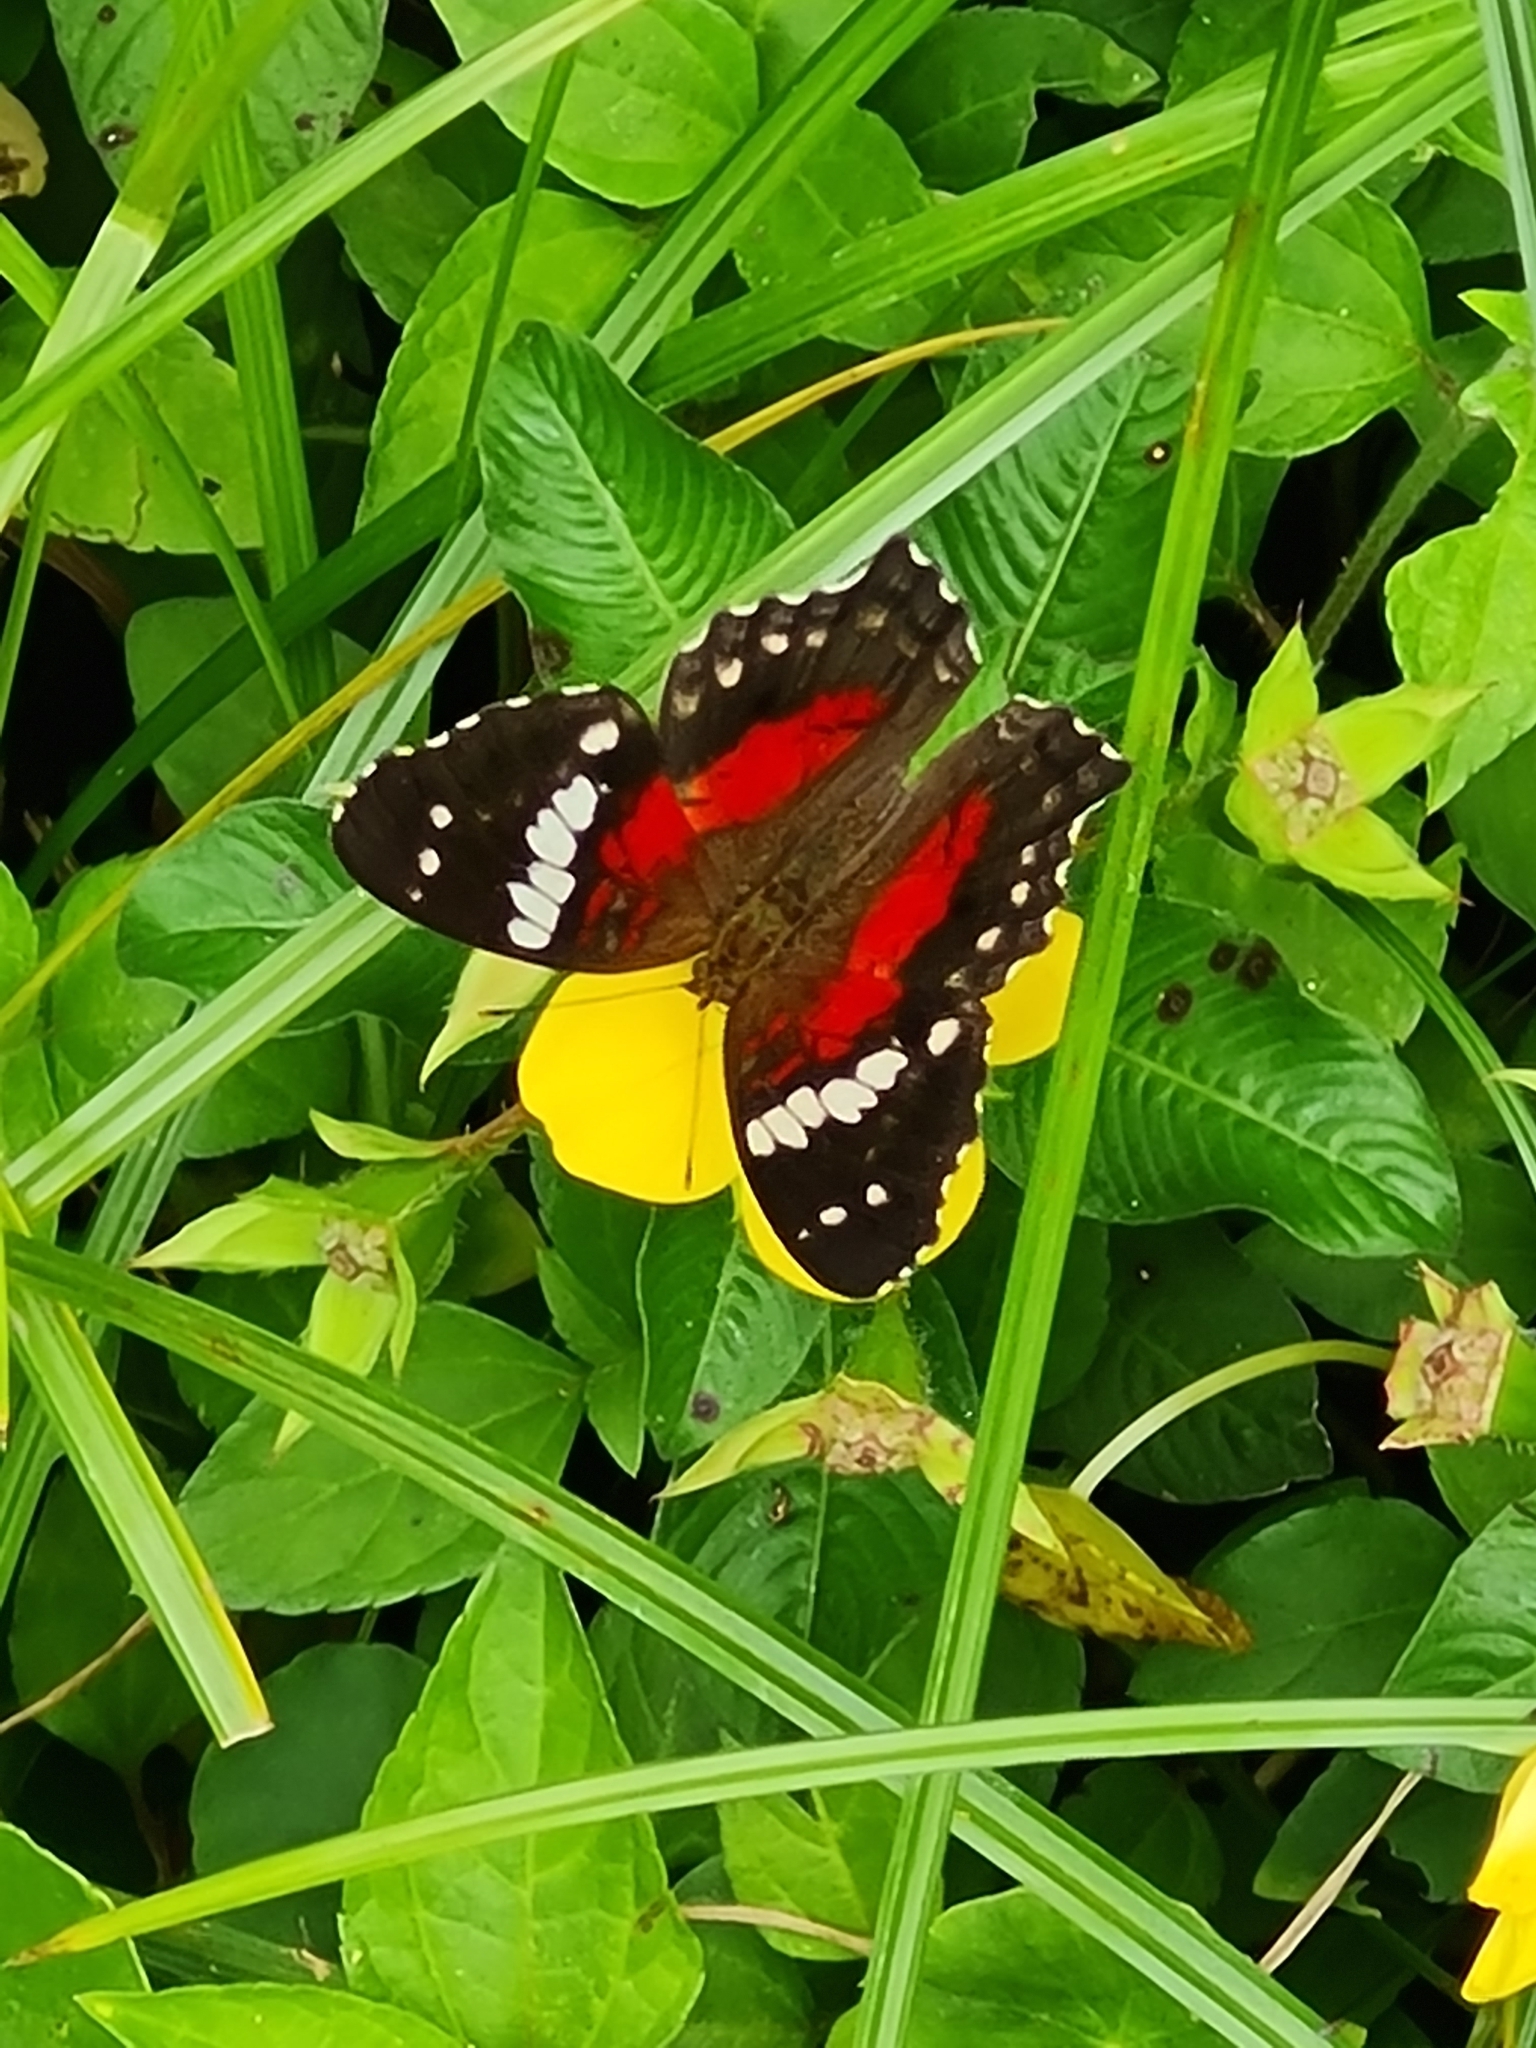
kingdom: Animalia
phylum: Arthropoda
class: Insecta
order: Lepidoptera
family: Nymphalidae
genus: Anartia
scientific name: Anartia amathea
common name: Red peacock
